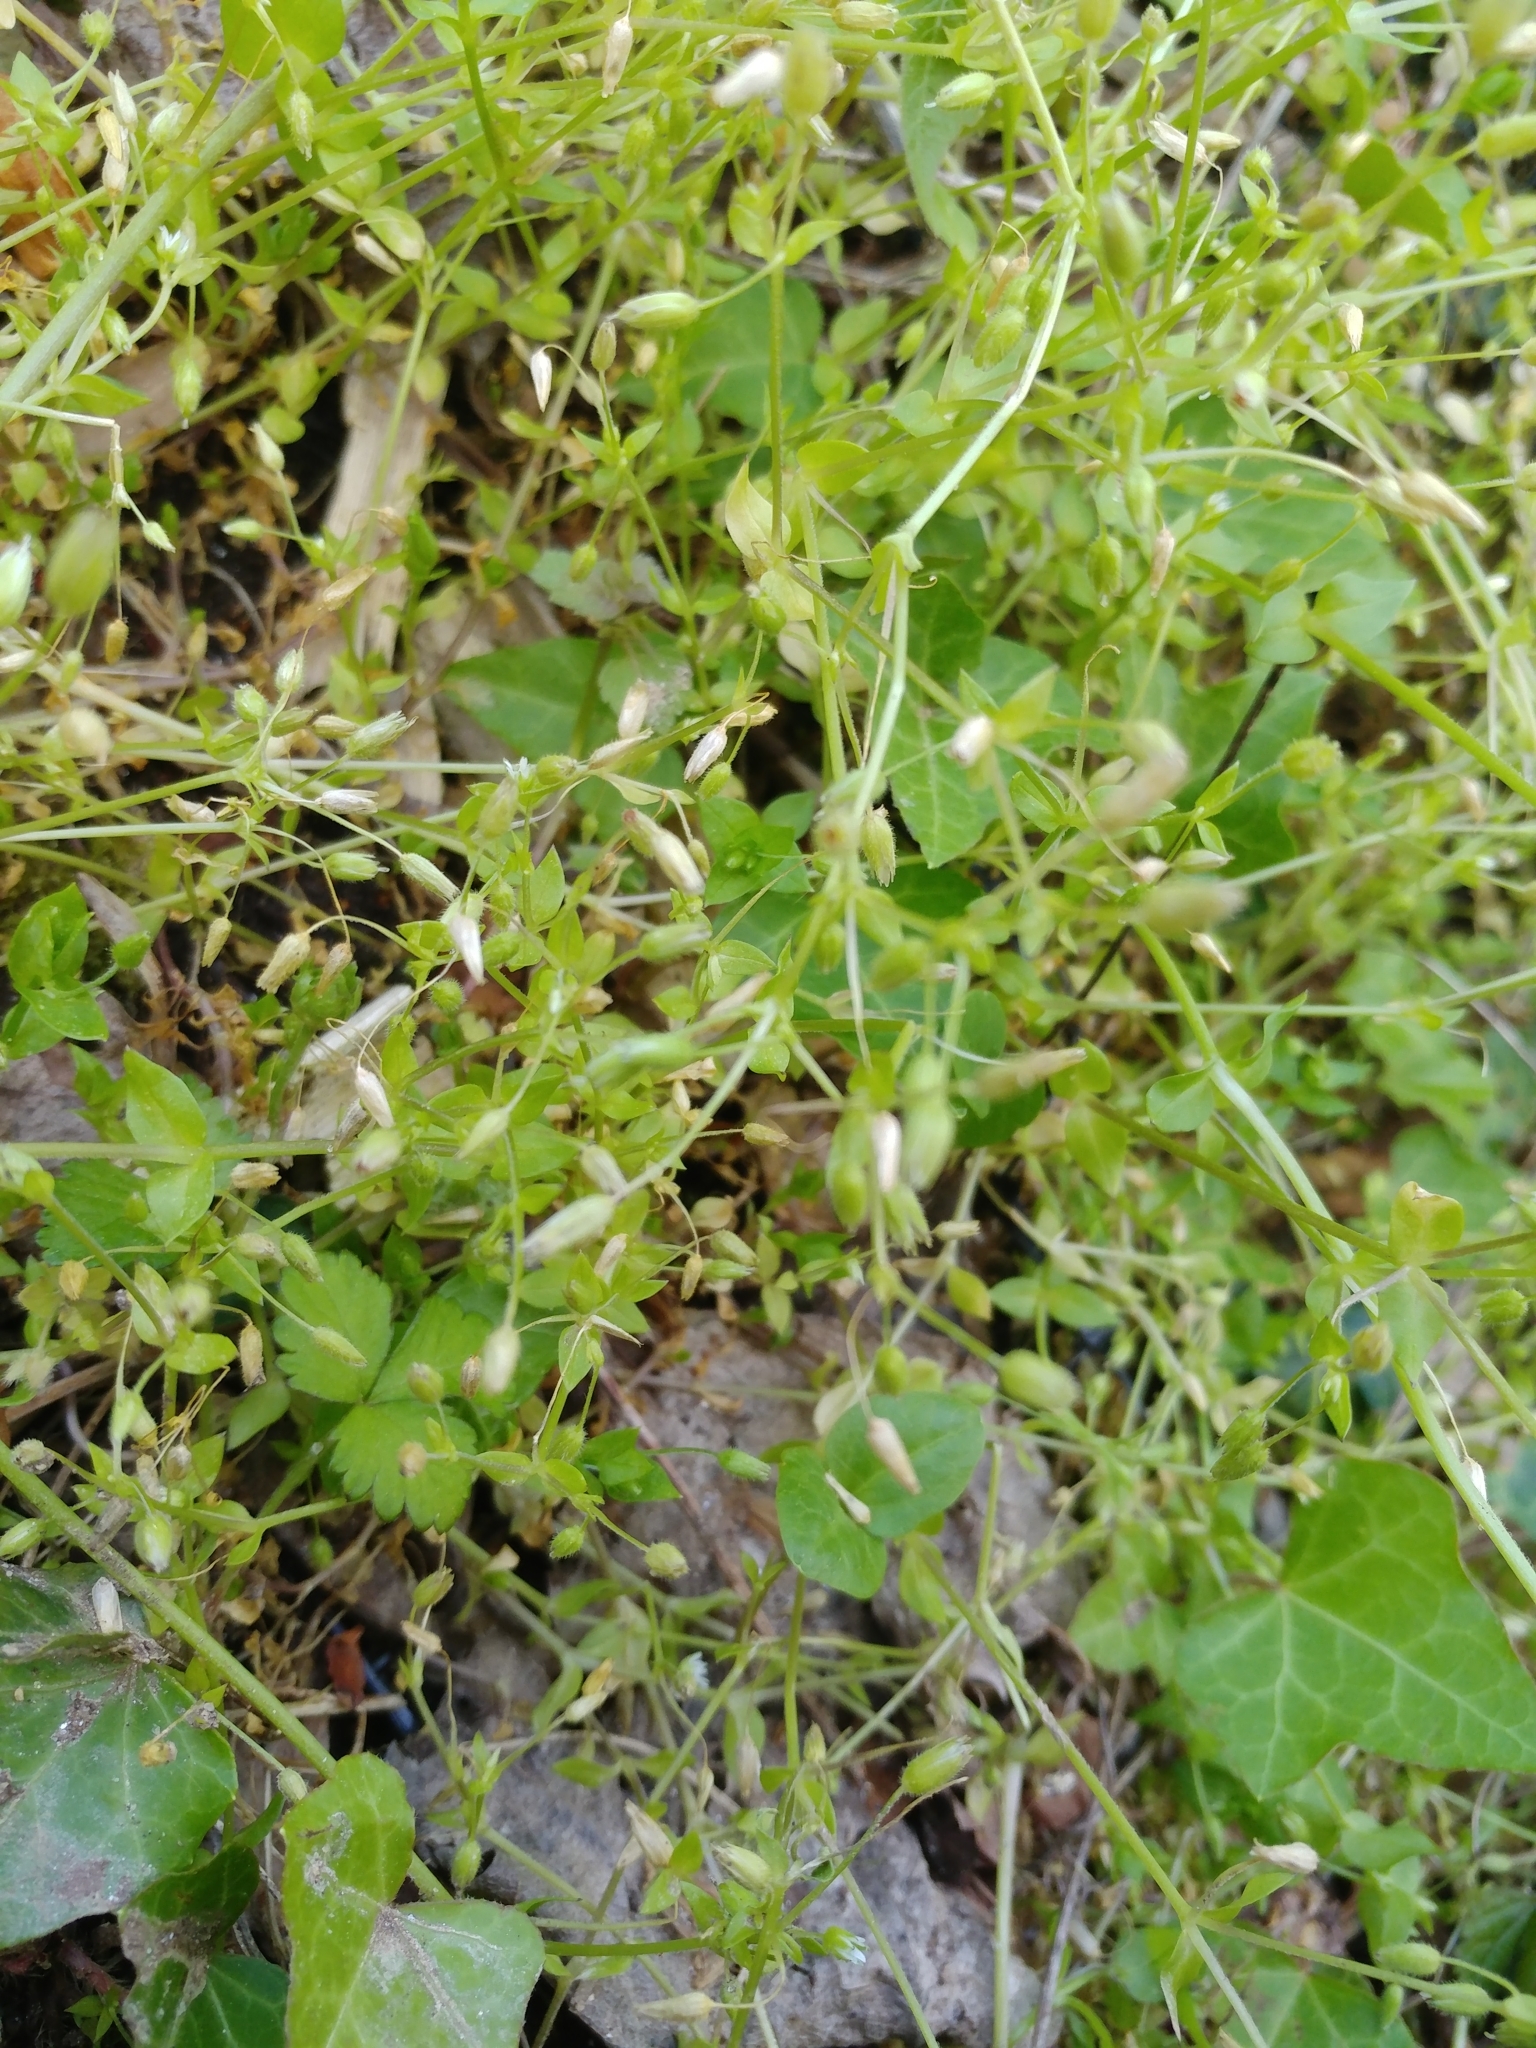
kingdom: Plantae
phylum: Tracheophyta
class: Magnoliopsida
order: Caryophyllales
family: Caryophyllaceae
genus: Stellaria
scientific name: Stellaria media
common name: Common chickweed
